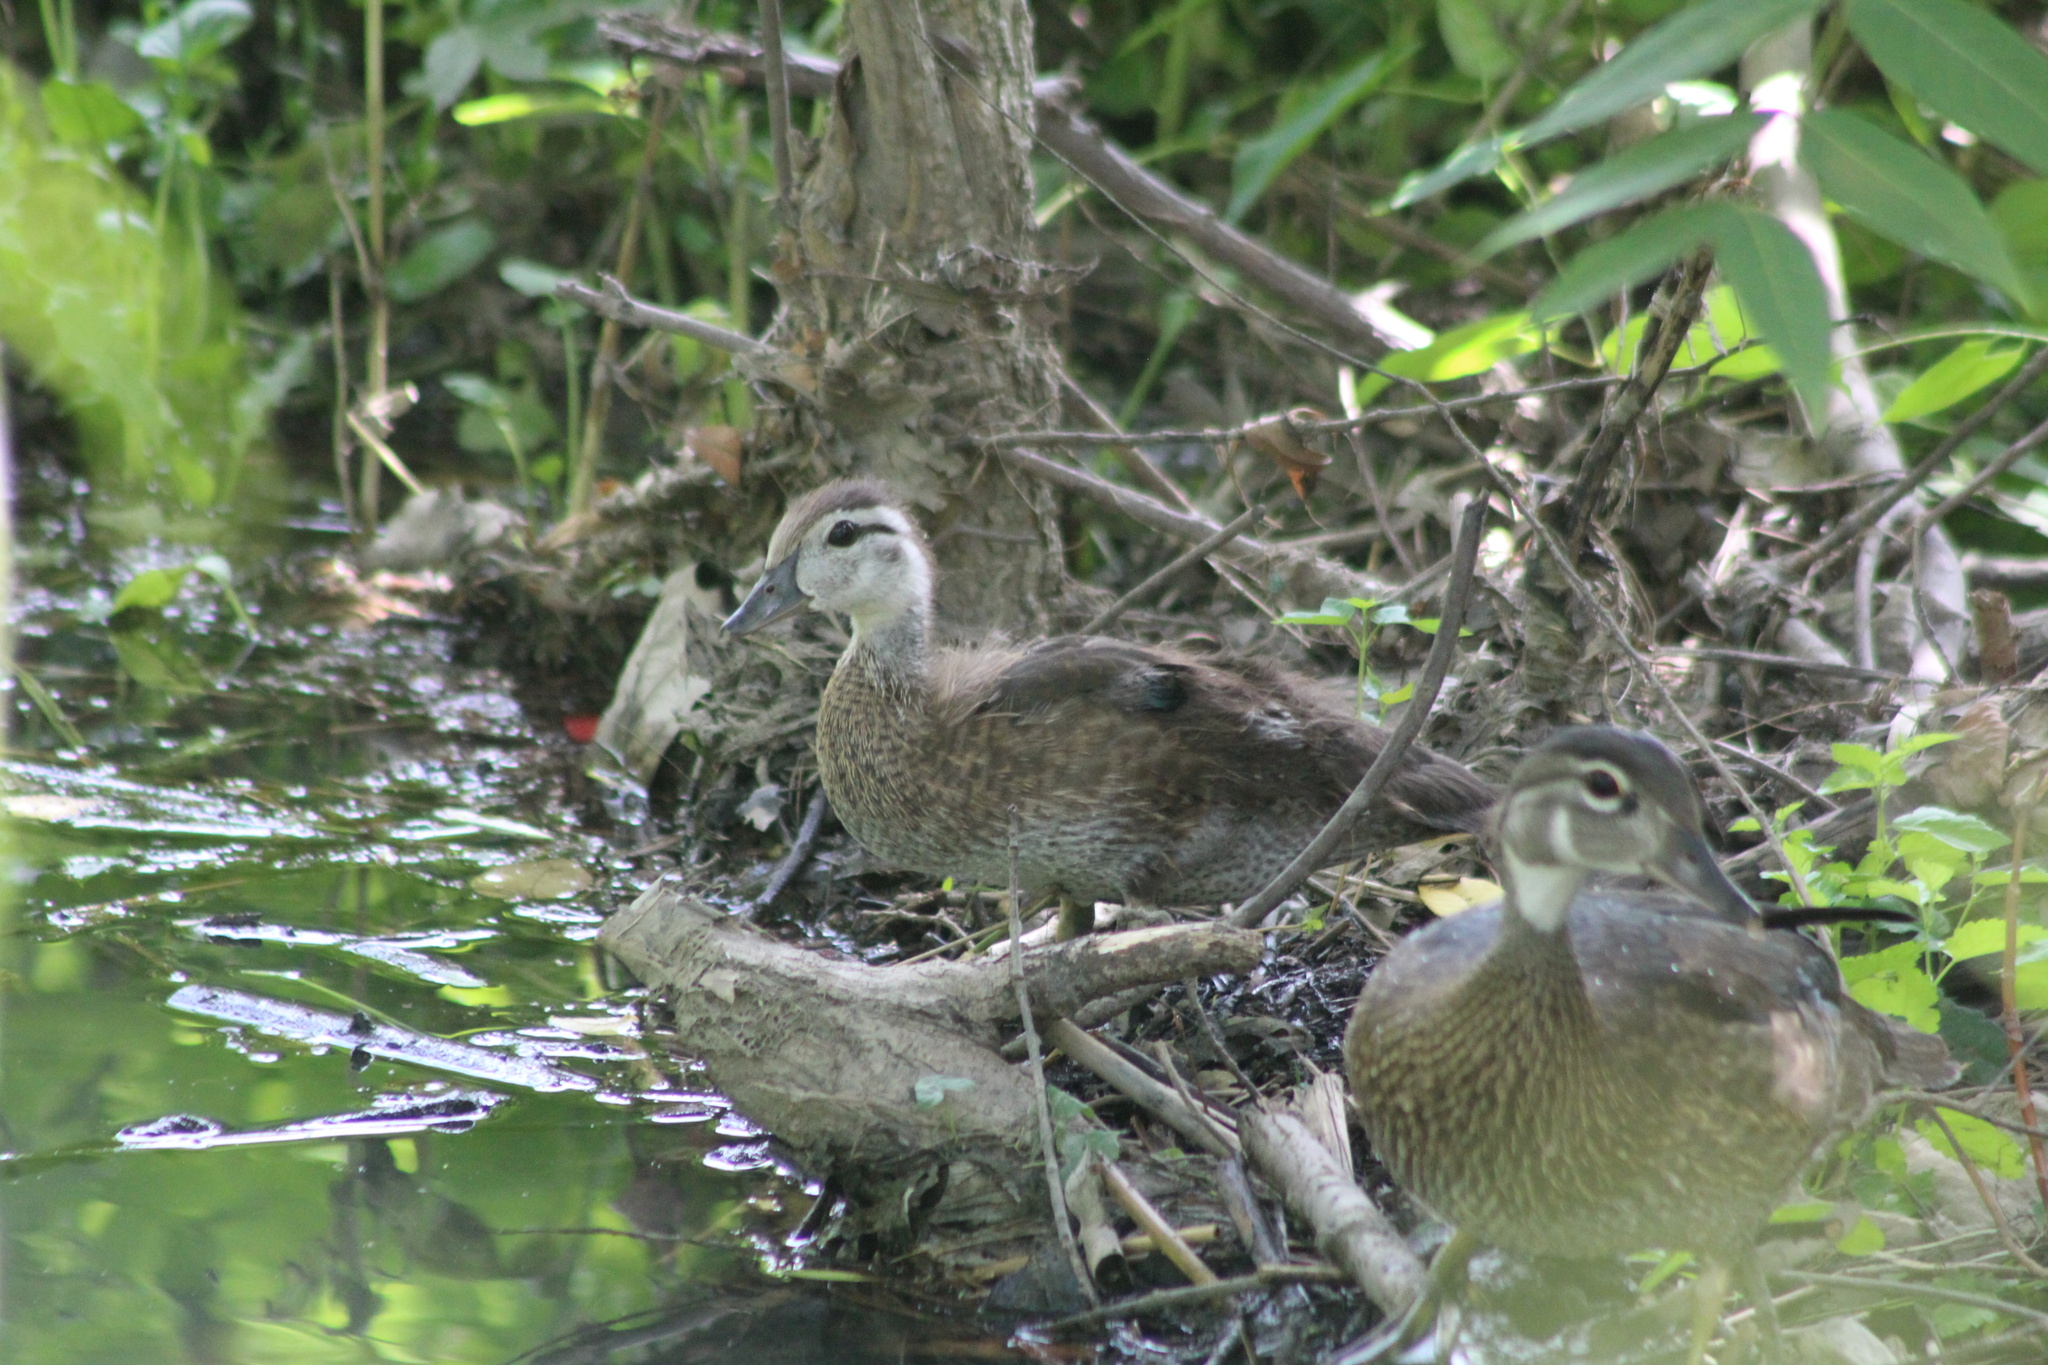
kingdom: Animalia
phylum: Chordata
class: Aves
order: Anseriformes
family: Anatidae
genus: Aix
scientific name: Aix sponsa
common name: Wood duck
